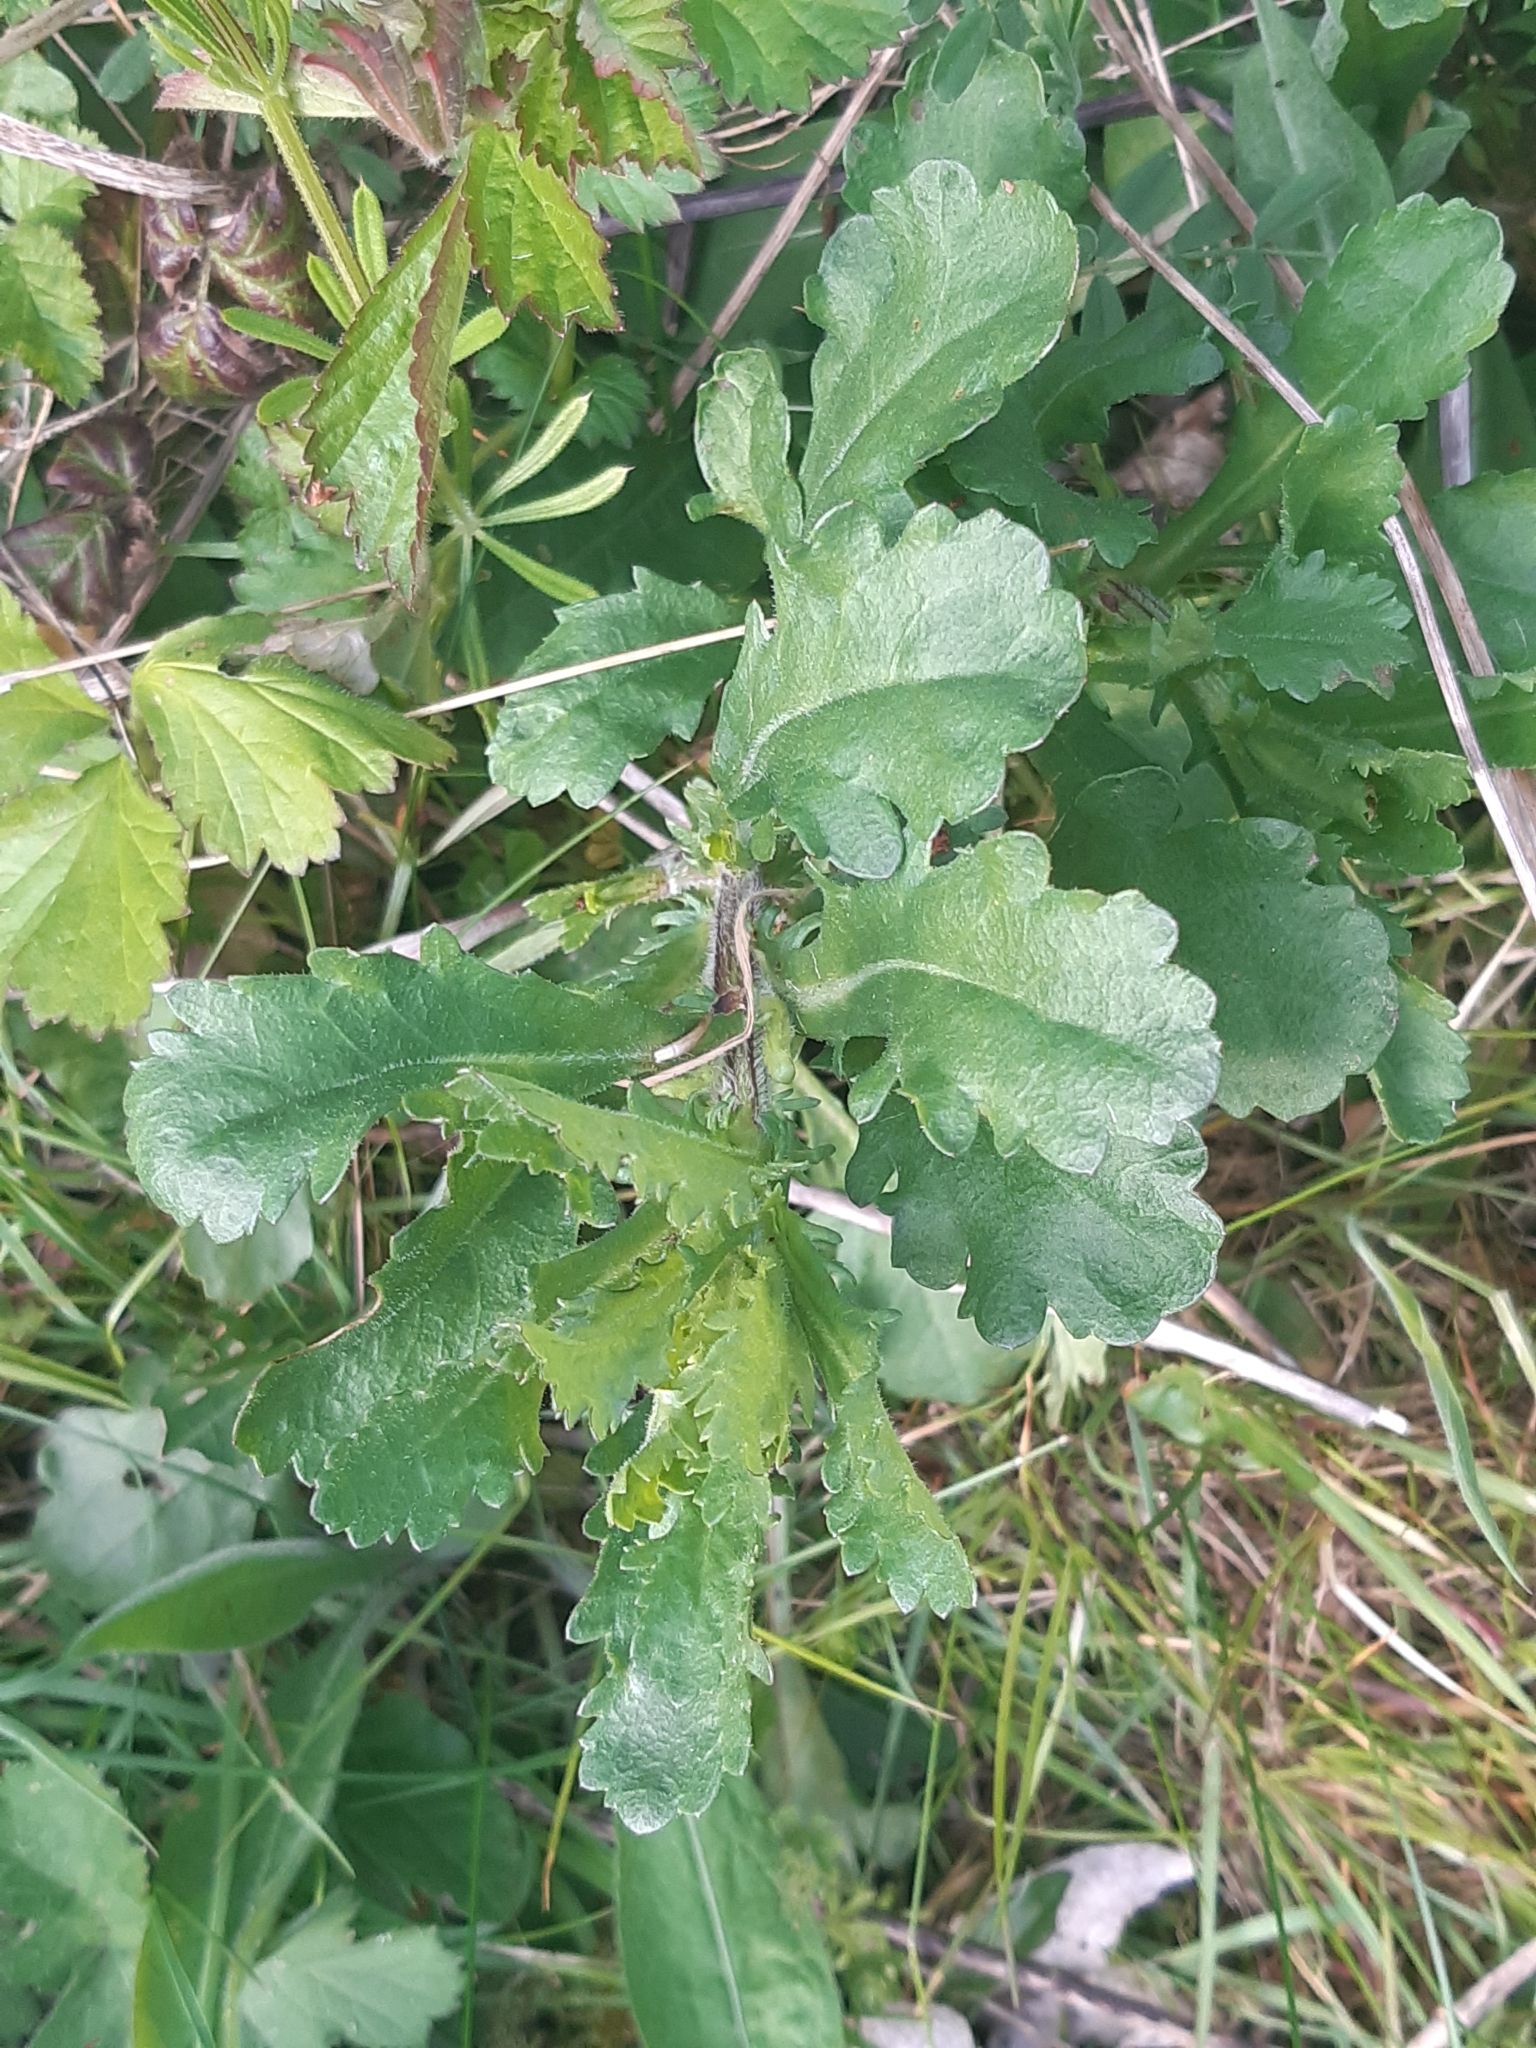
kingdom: Plantae
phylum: Tracheophyta
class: Magnoliopsida
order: Asterales
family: Asteraceae
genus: Leucanthemum
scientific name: Leucanthemum vulgare
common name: Oxeye daisy
